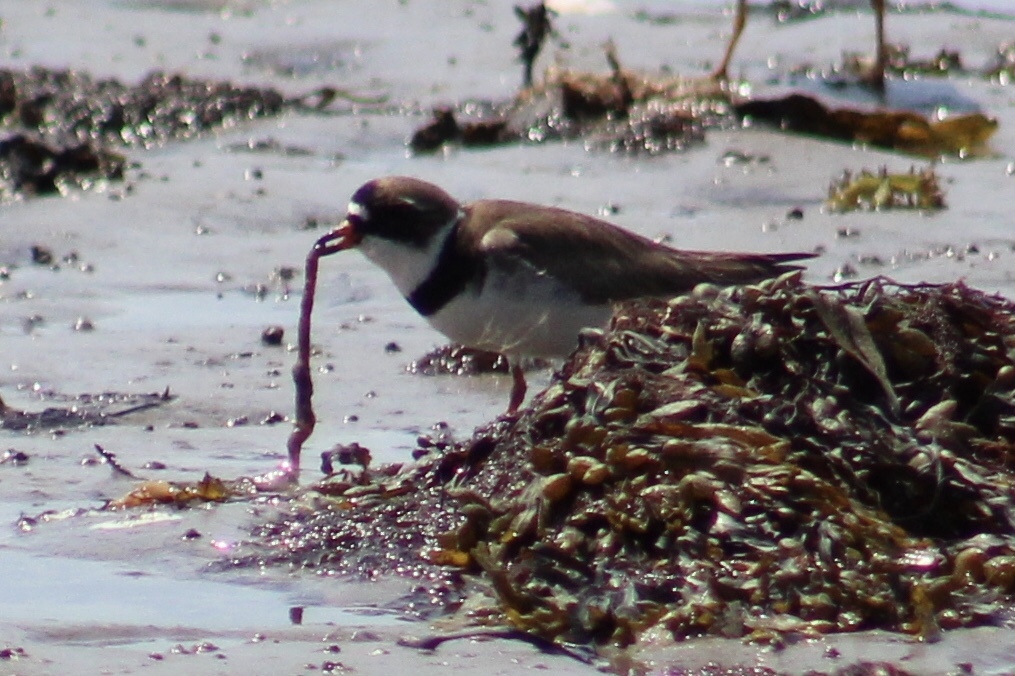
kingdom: Animalia
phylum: Chordata
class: Aves
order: Charadriiformes
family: Charadriidae
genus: Charadrius
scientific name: Charadrius semipalmatus
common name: Semipalmated plover
